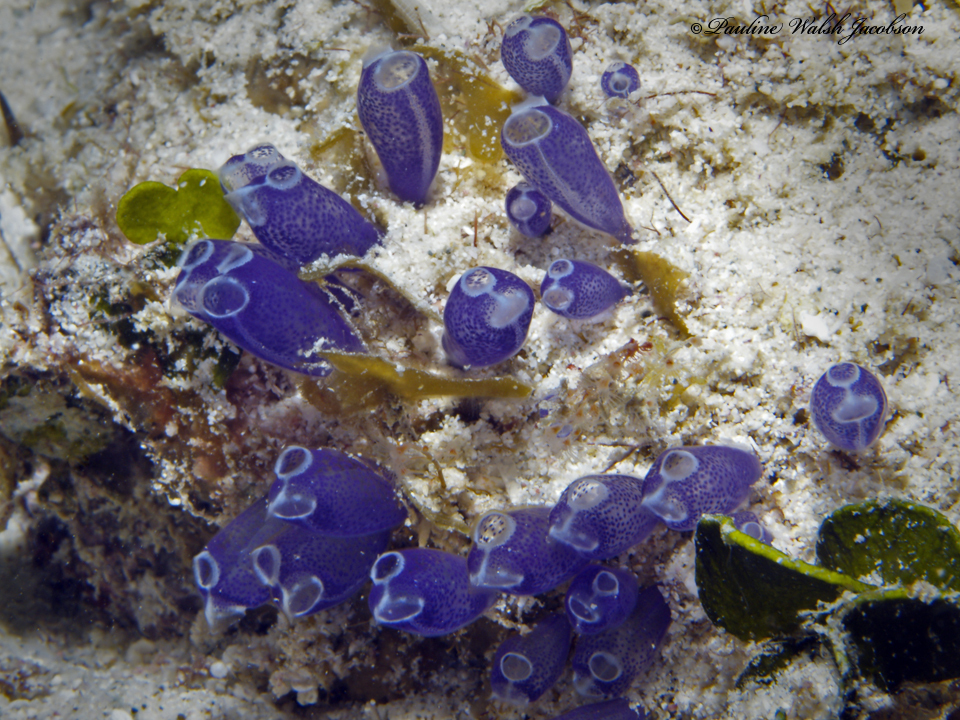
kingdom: Animalia
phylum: Chordata
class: Ascidiacea
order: Aplousobranchia
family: Clavelinidae
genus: Clavelina
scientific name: Clavelina puertosecensis
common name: Blue bell tunicate
